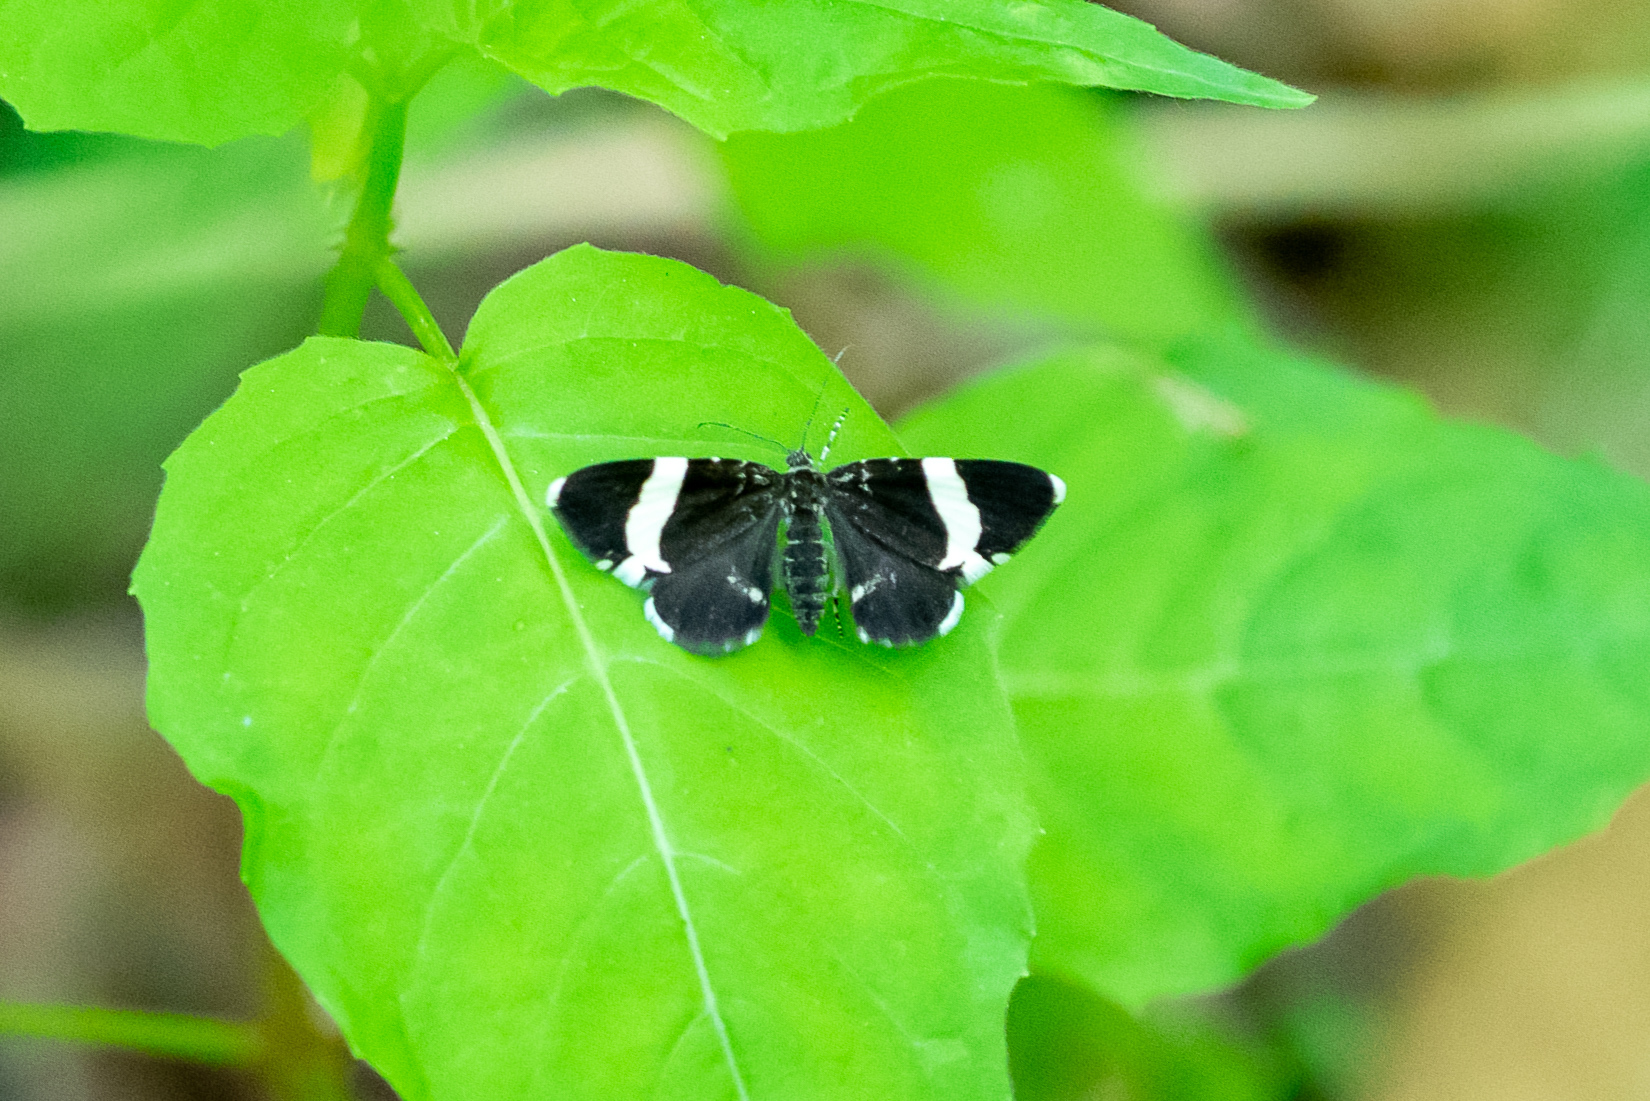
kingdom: Animalia
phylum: Arthropoda
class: Insecta
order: Lepidoptera
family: Geometridae
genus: Trichodezia
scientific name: Trichodezia albovittata
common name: White striped black
